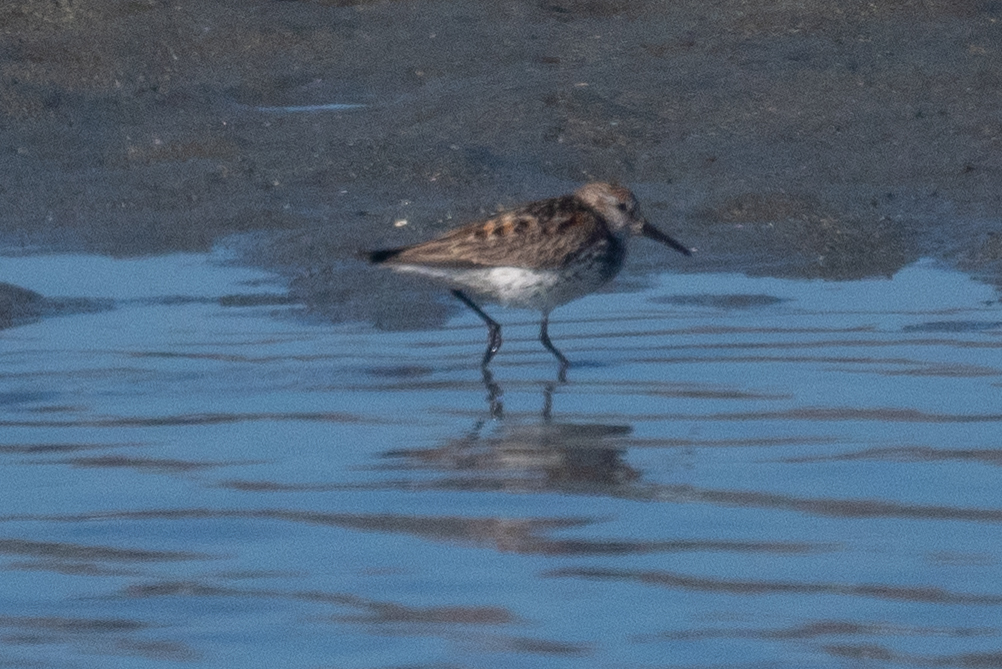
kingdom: Animalia
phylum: Chordata
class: Aves
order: Charadriiformes
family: Scolopacidae
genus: Calidris
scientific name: Calidris mauri
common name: Western sandpiper
